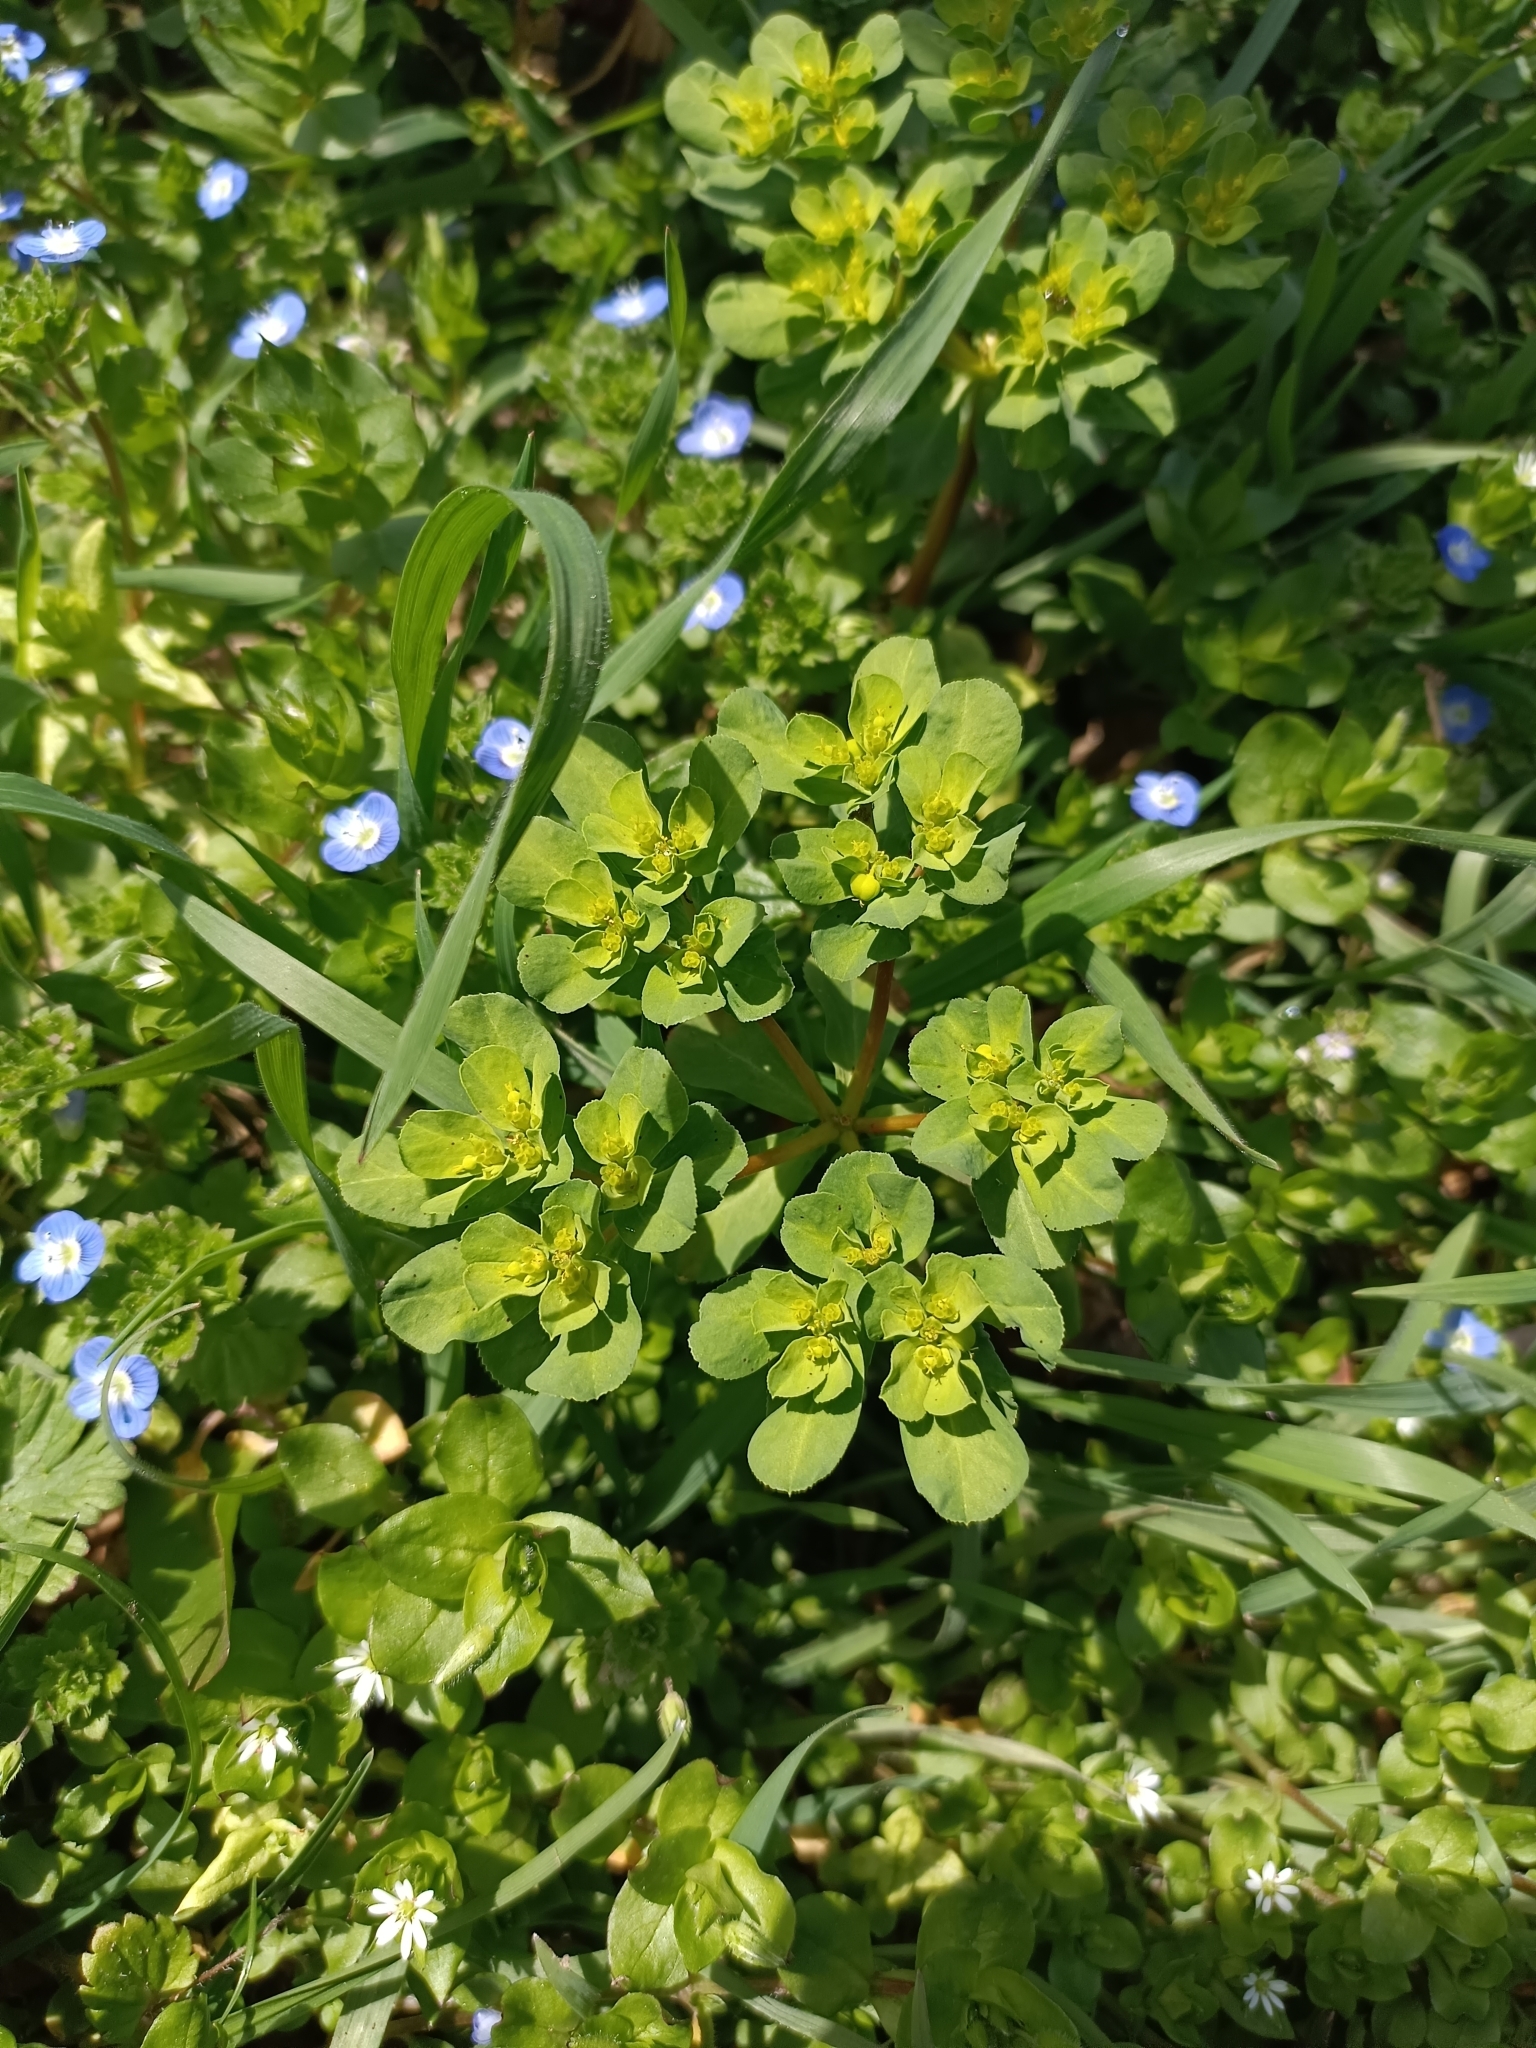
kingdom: Plantae
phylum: Tracheophyta
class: Magnoliopsida
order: Malpighiales
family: Euphorbiaceae
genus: Euphorbia
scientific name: Euphorbia helioscopia
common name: Sun spurge
